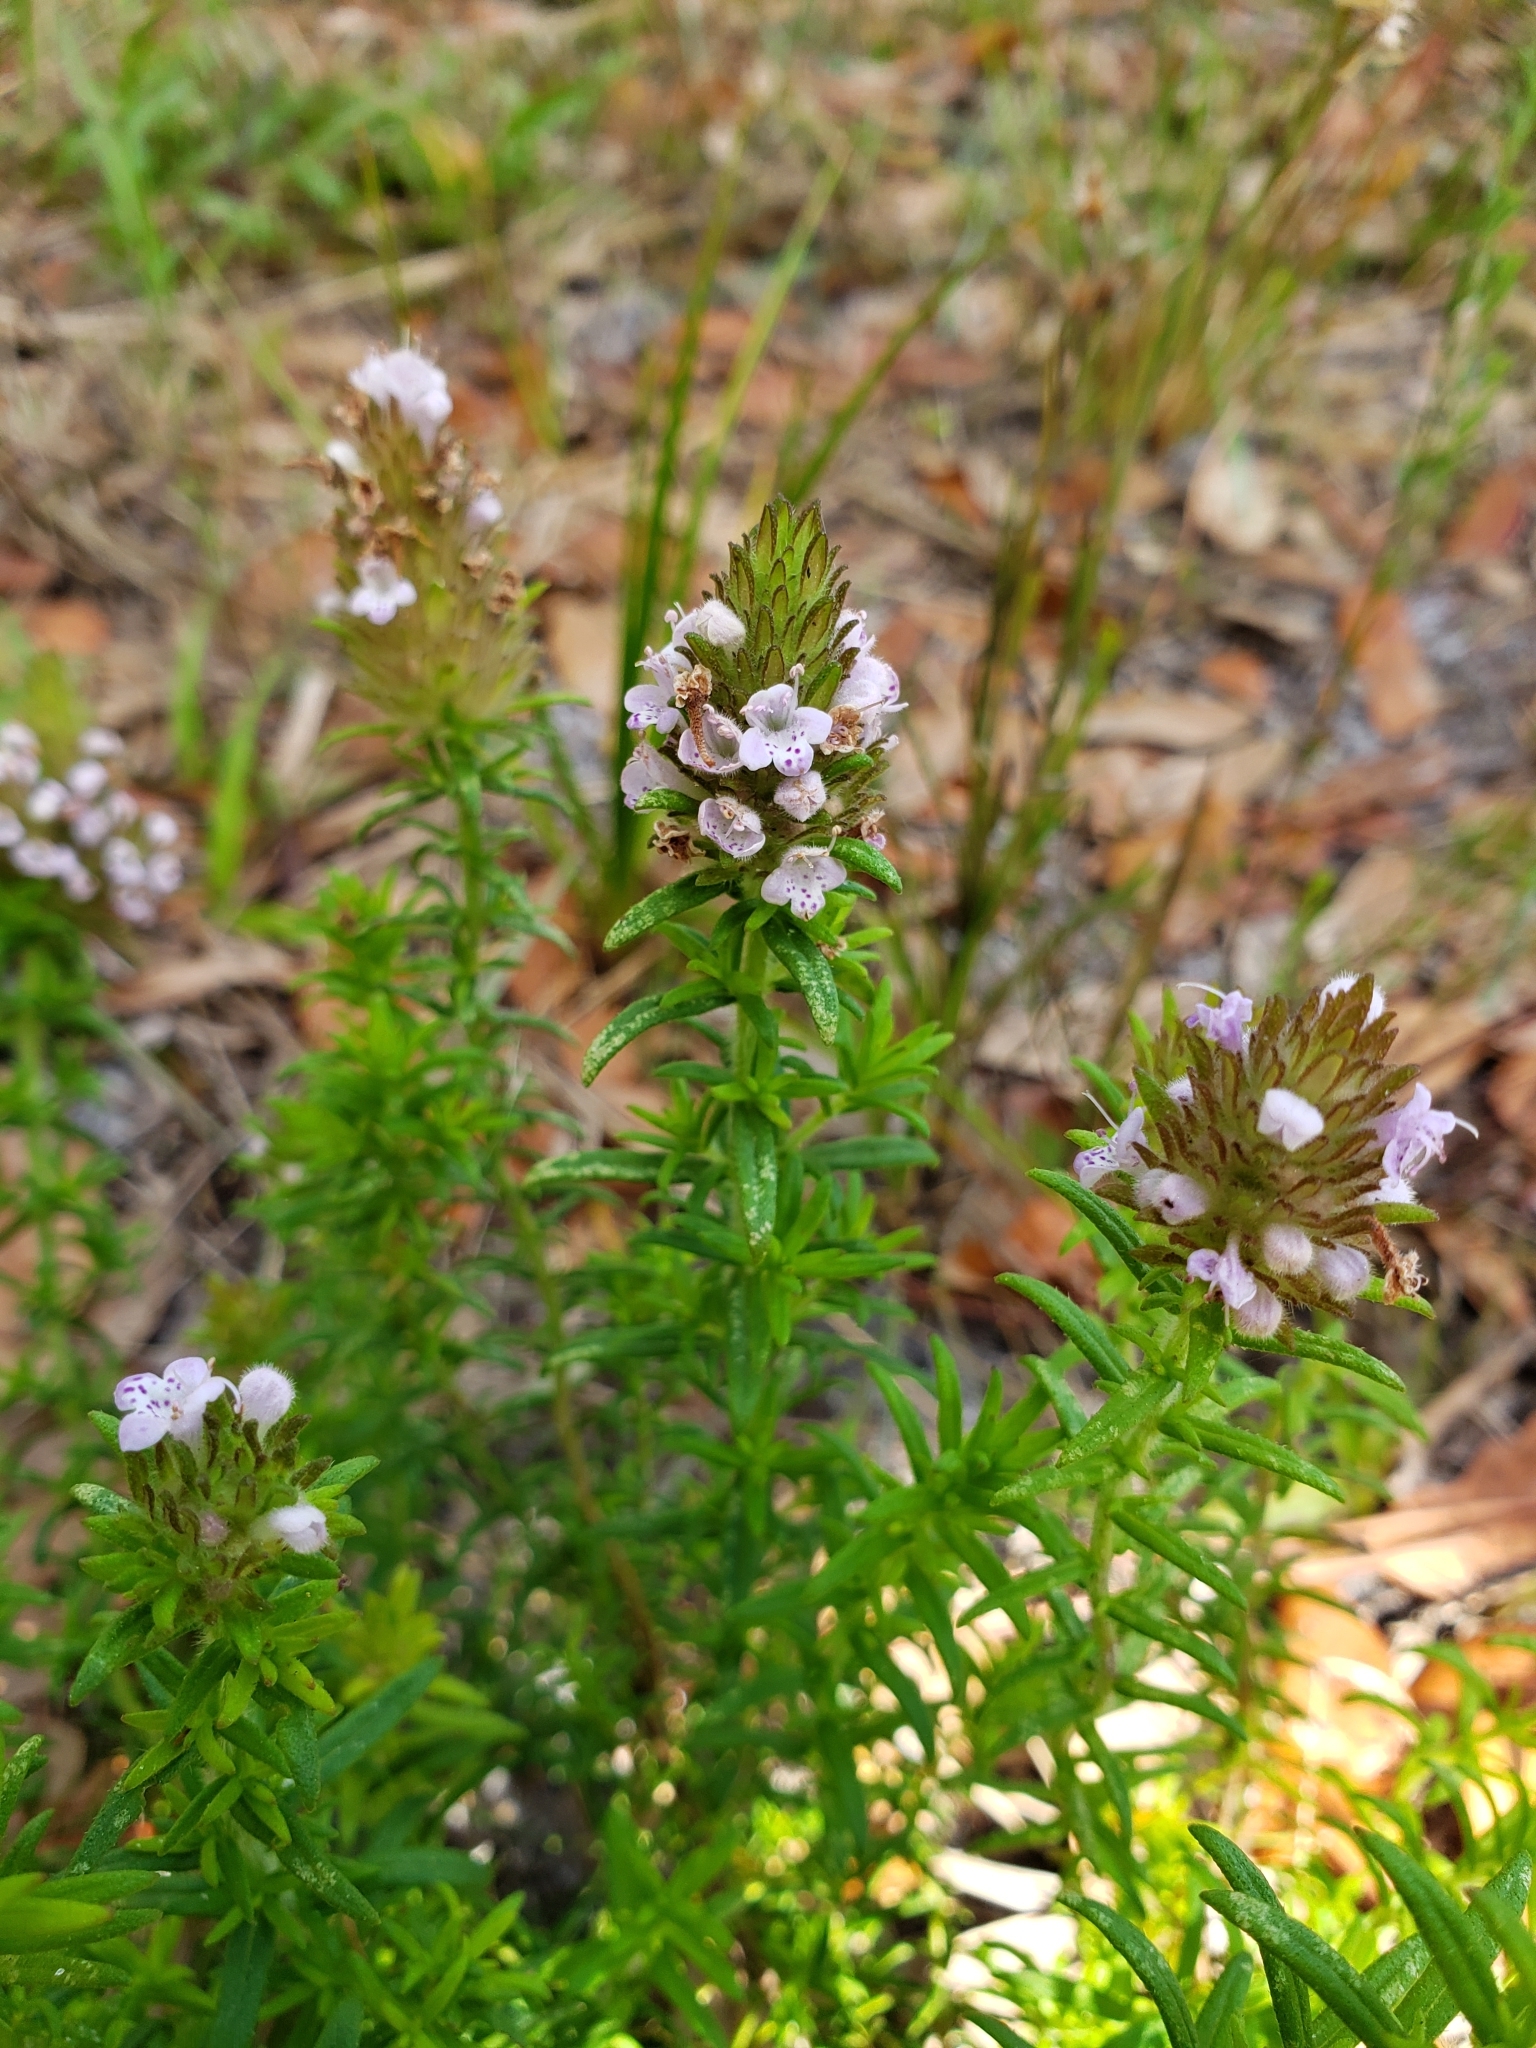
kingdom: Plantae
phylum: Tracheophyta
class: Magnoliopsida
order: Lamiales
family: Lamiaceae
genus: Piloblephis
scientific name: Piloblephis rigida
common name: Wild pennyroyal
